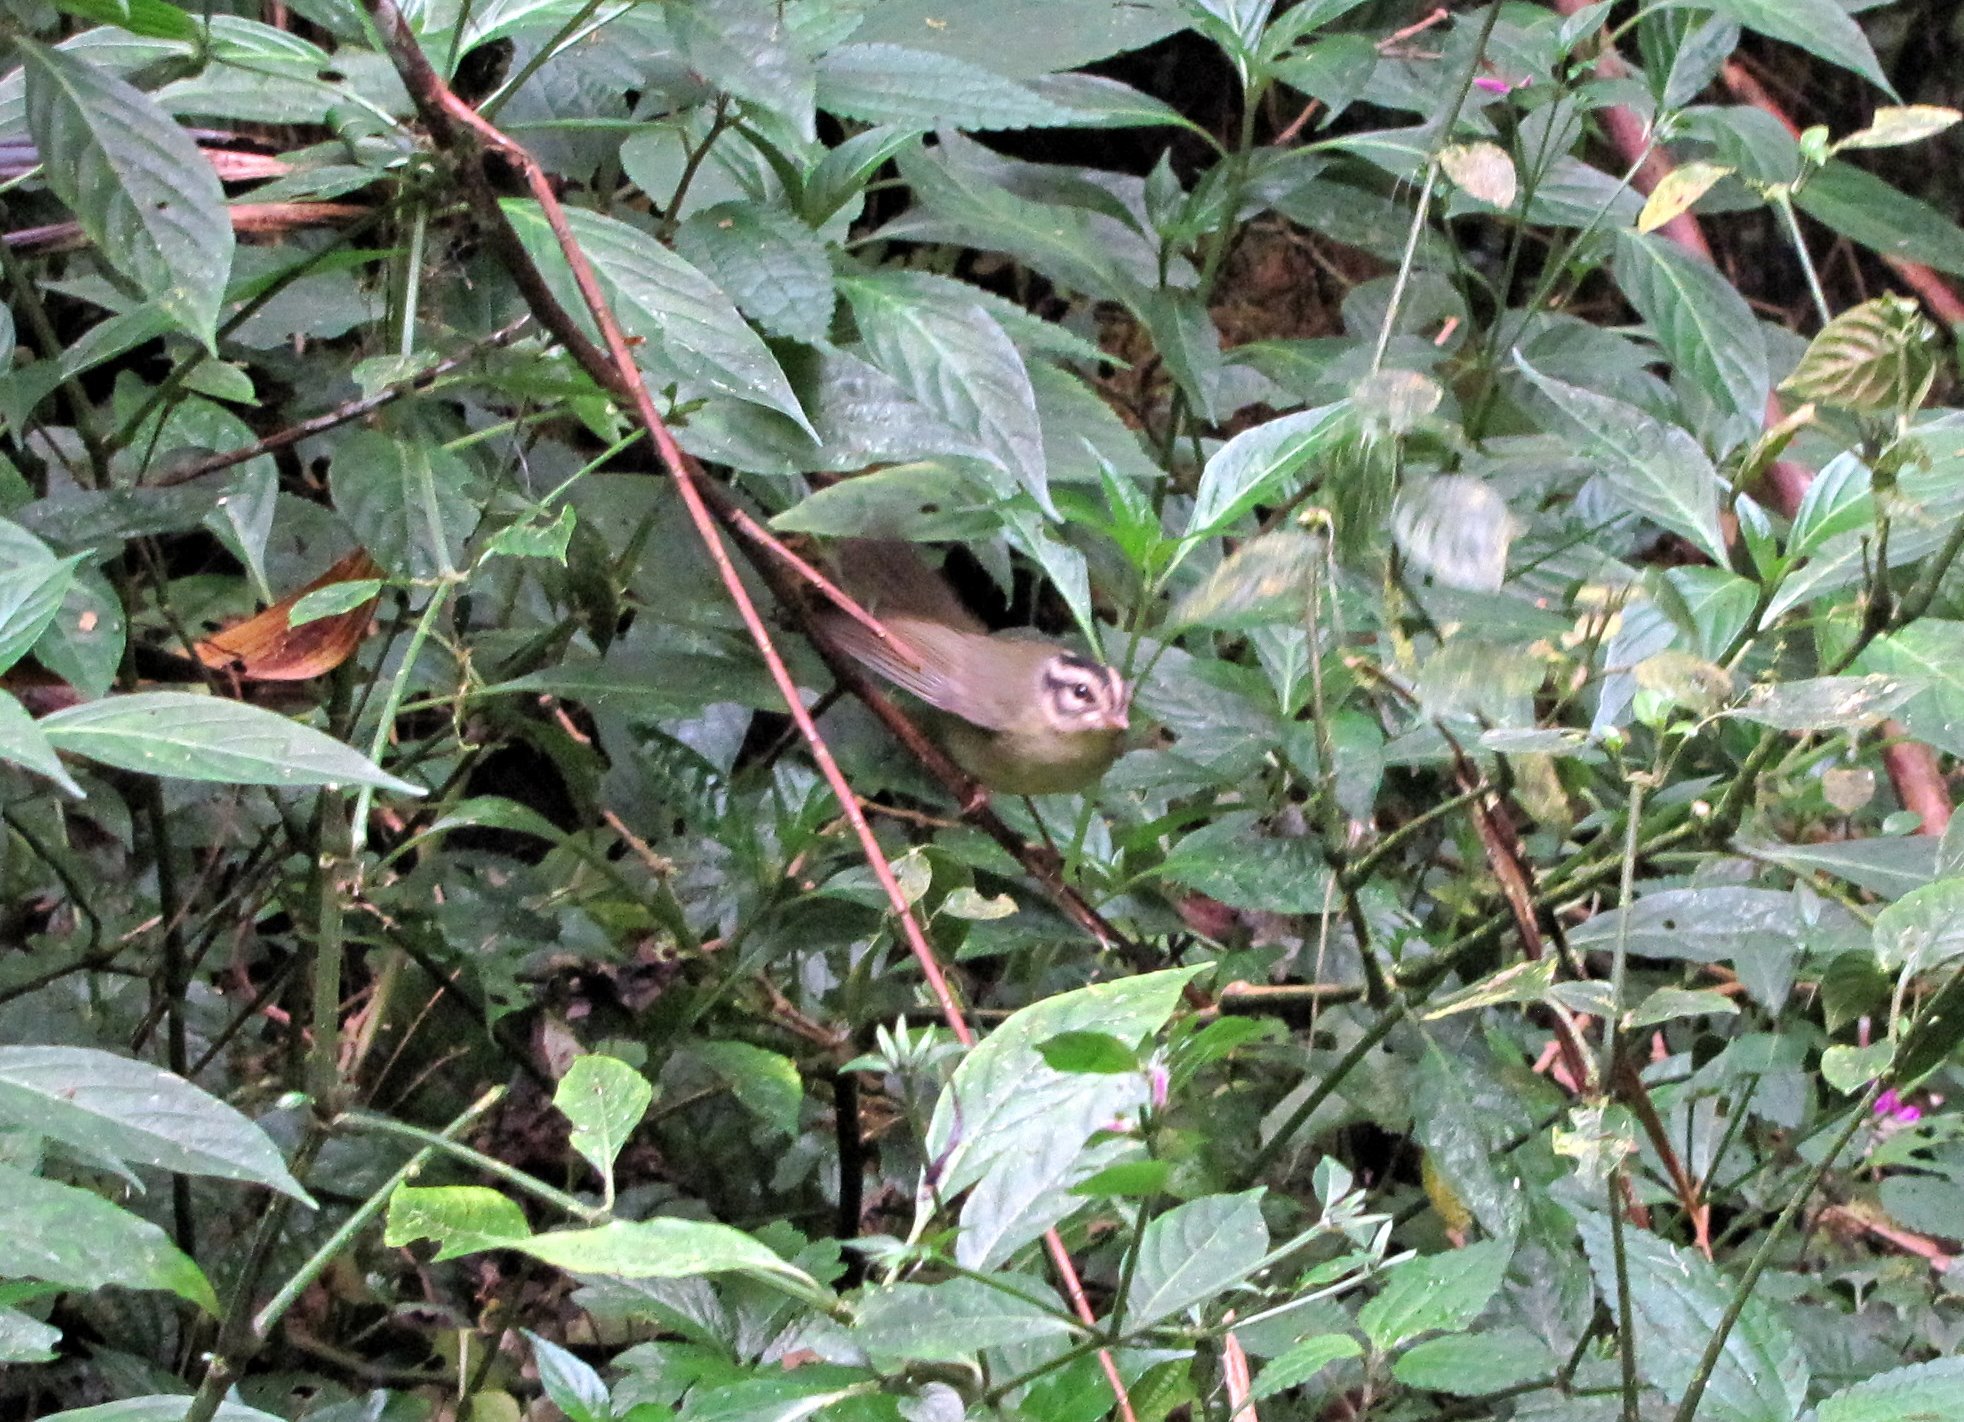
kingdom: Animalia
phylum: Chordata
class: Aves
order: Passeriformes
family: Parulidae
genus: Basileuterus
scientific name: Basileuterus melanotis
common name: Black-eared warbler
